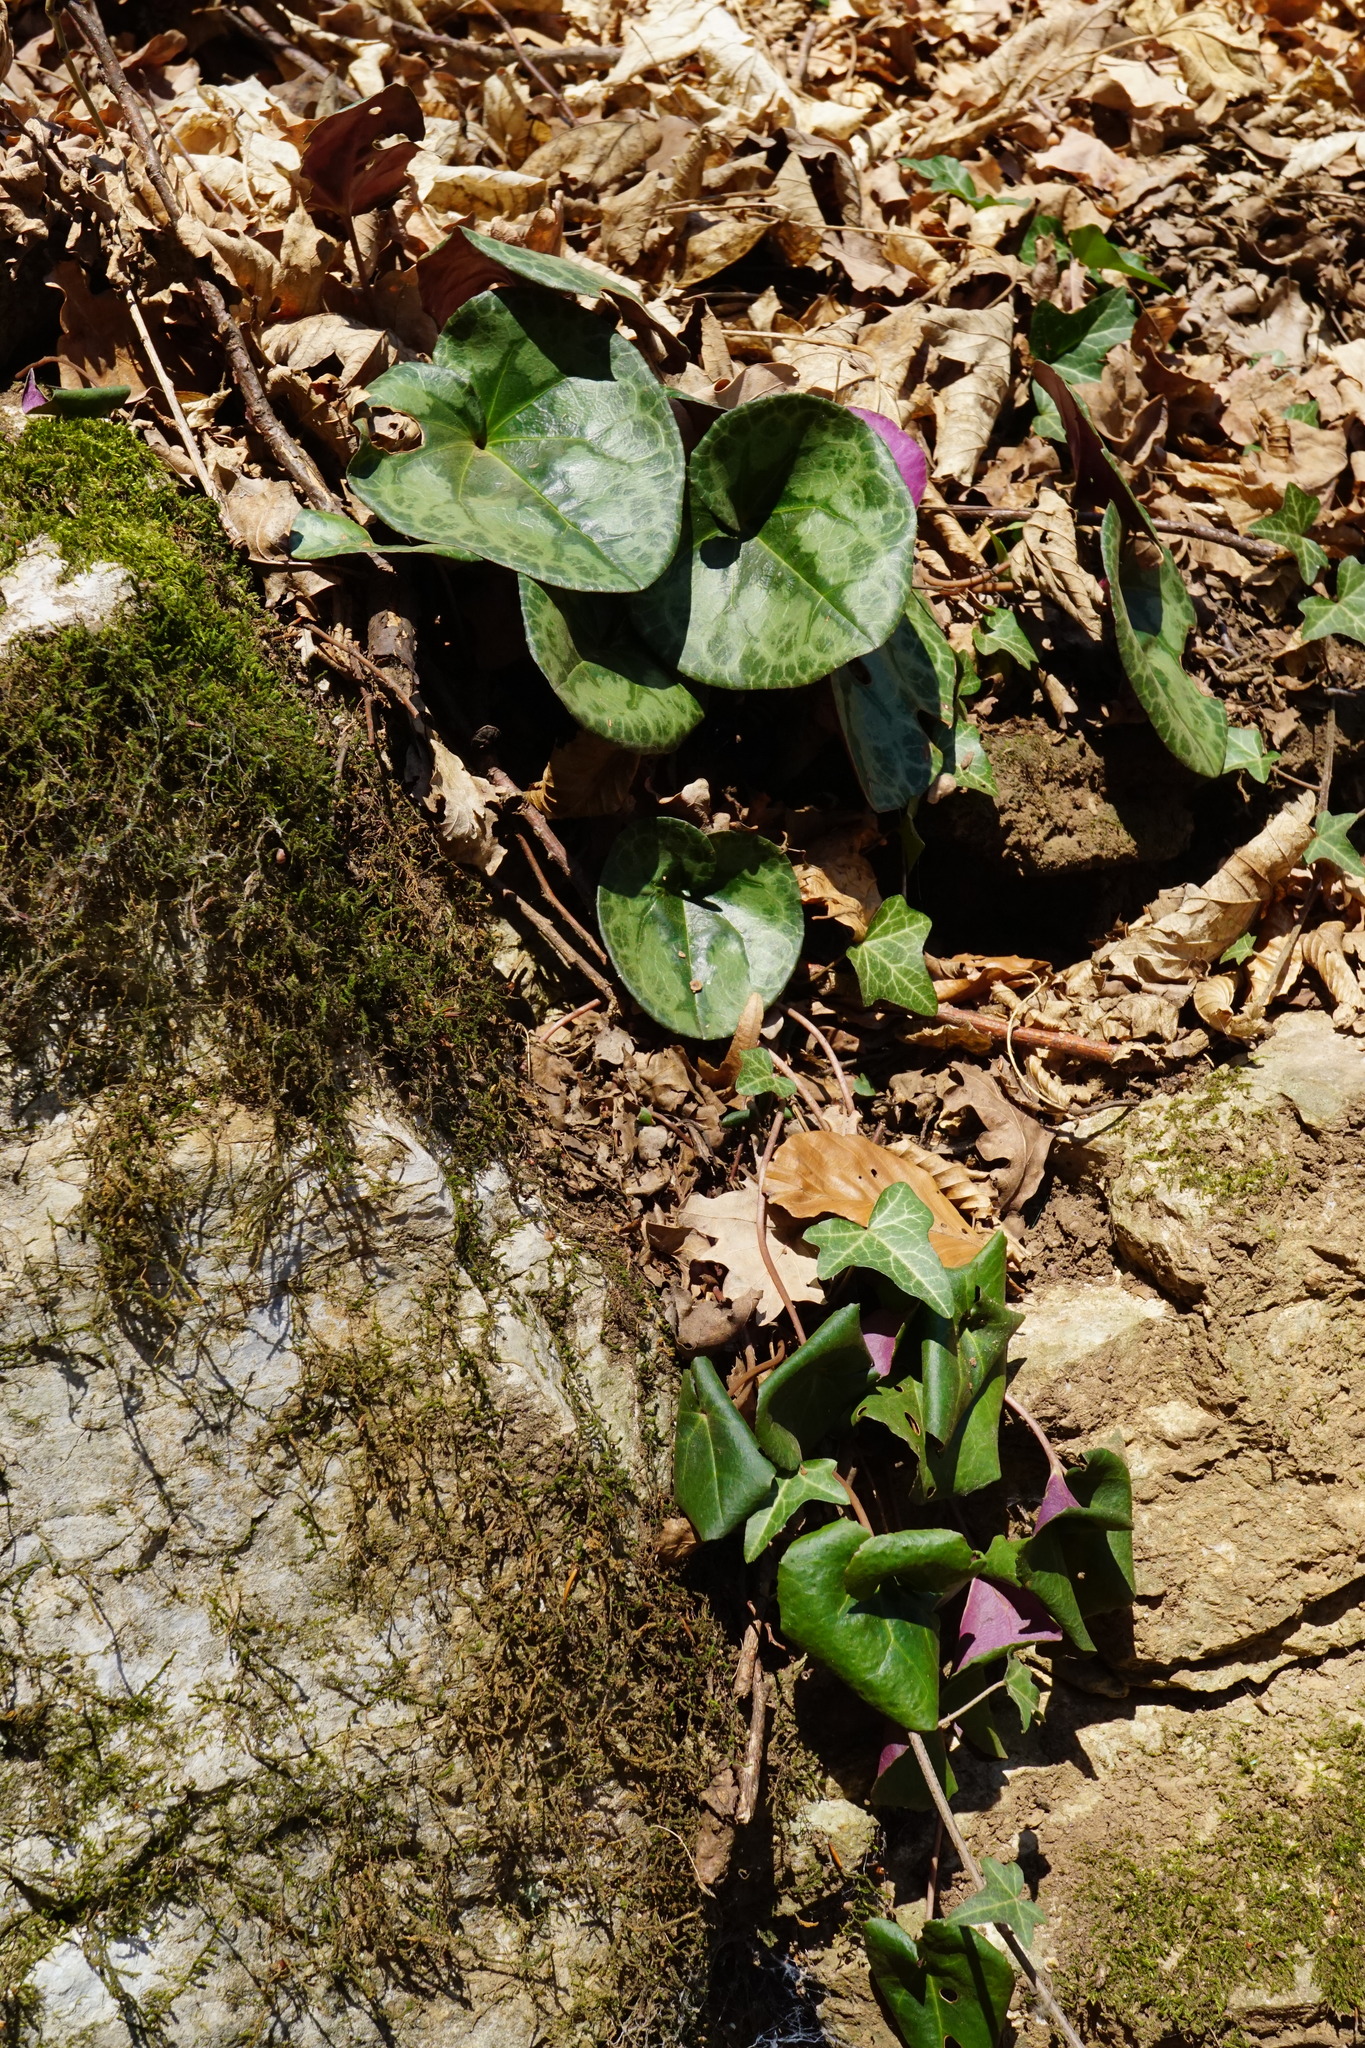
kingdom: Plantae
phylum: Tracheophyta
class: Magnoliopsida
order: Ericales
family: Primulaceae
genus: Cyclamen
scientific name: Cyclamen purpurascens
